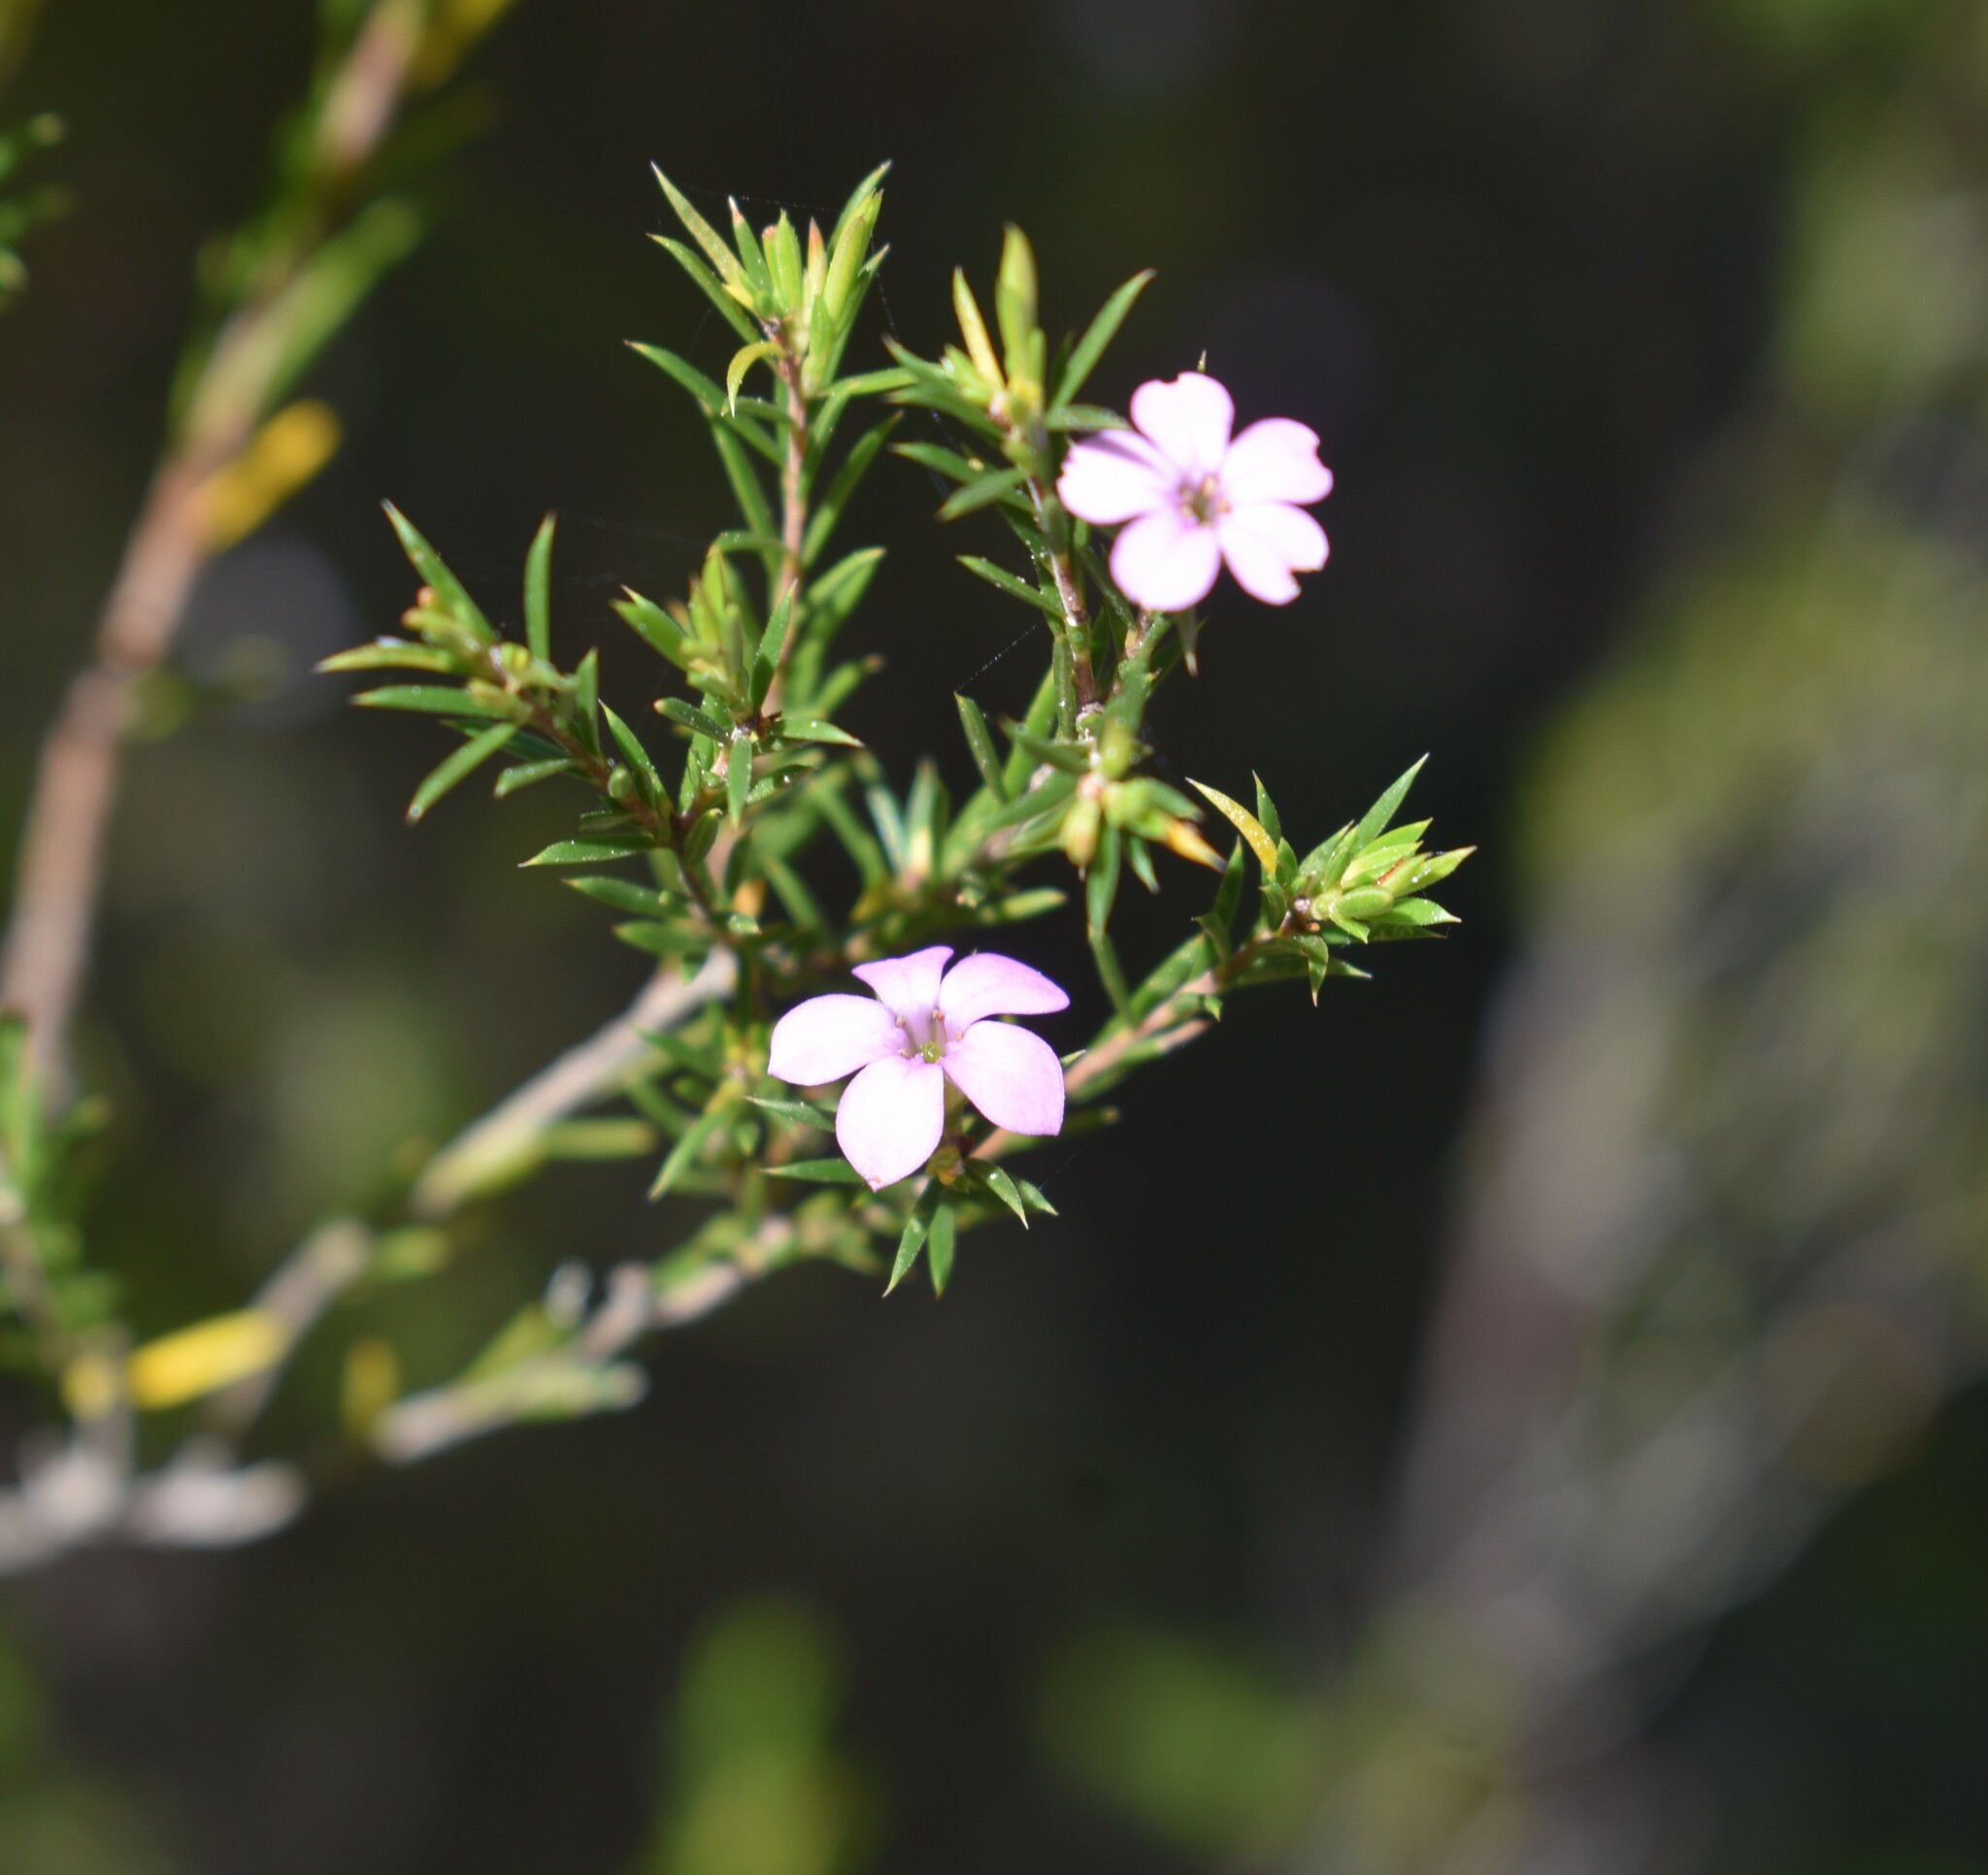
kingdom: Plantae
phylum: Tracheophyta
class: Magnoliopsida
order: Sapindales
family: Rutaceae
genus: Coleonema
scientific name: Coleonema pulchellum
